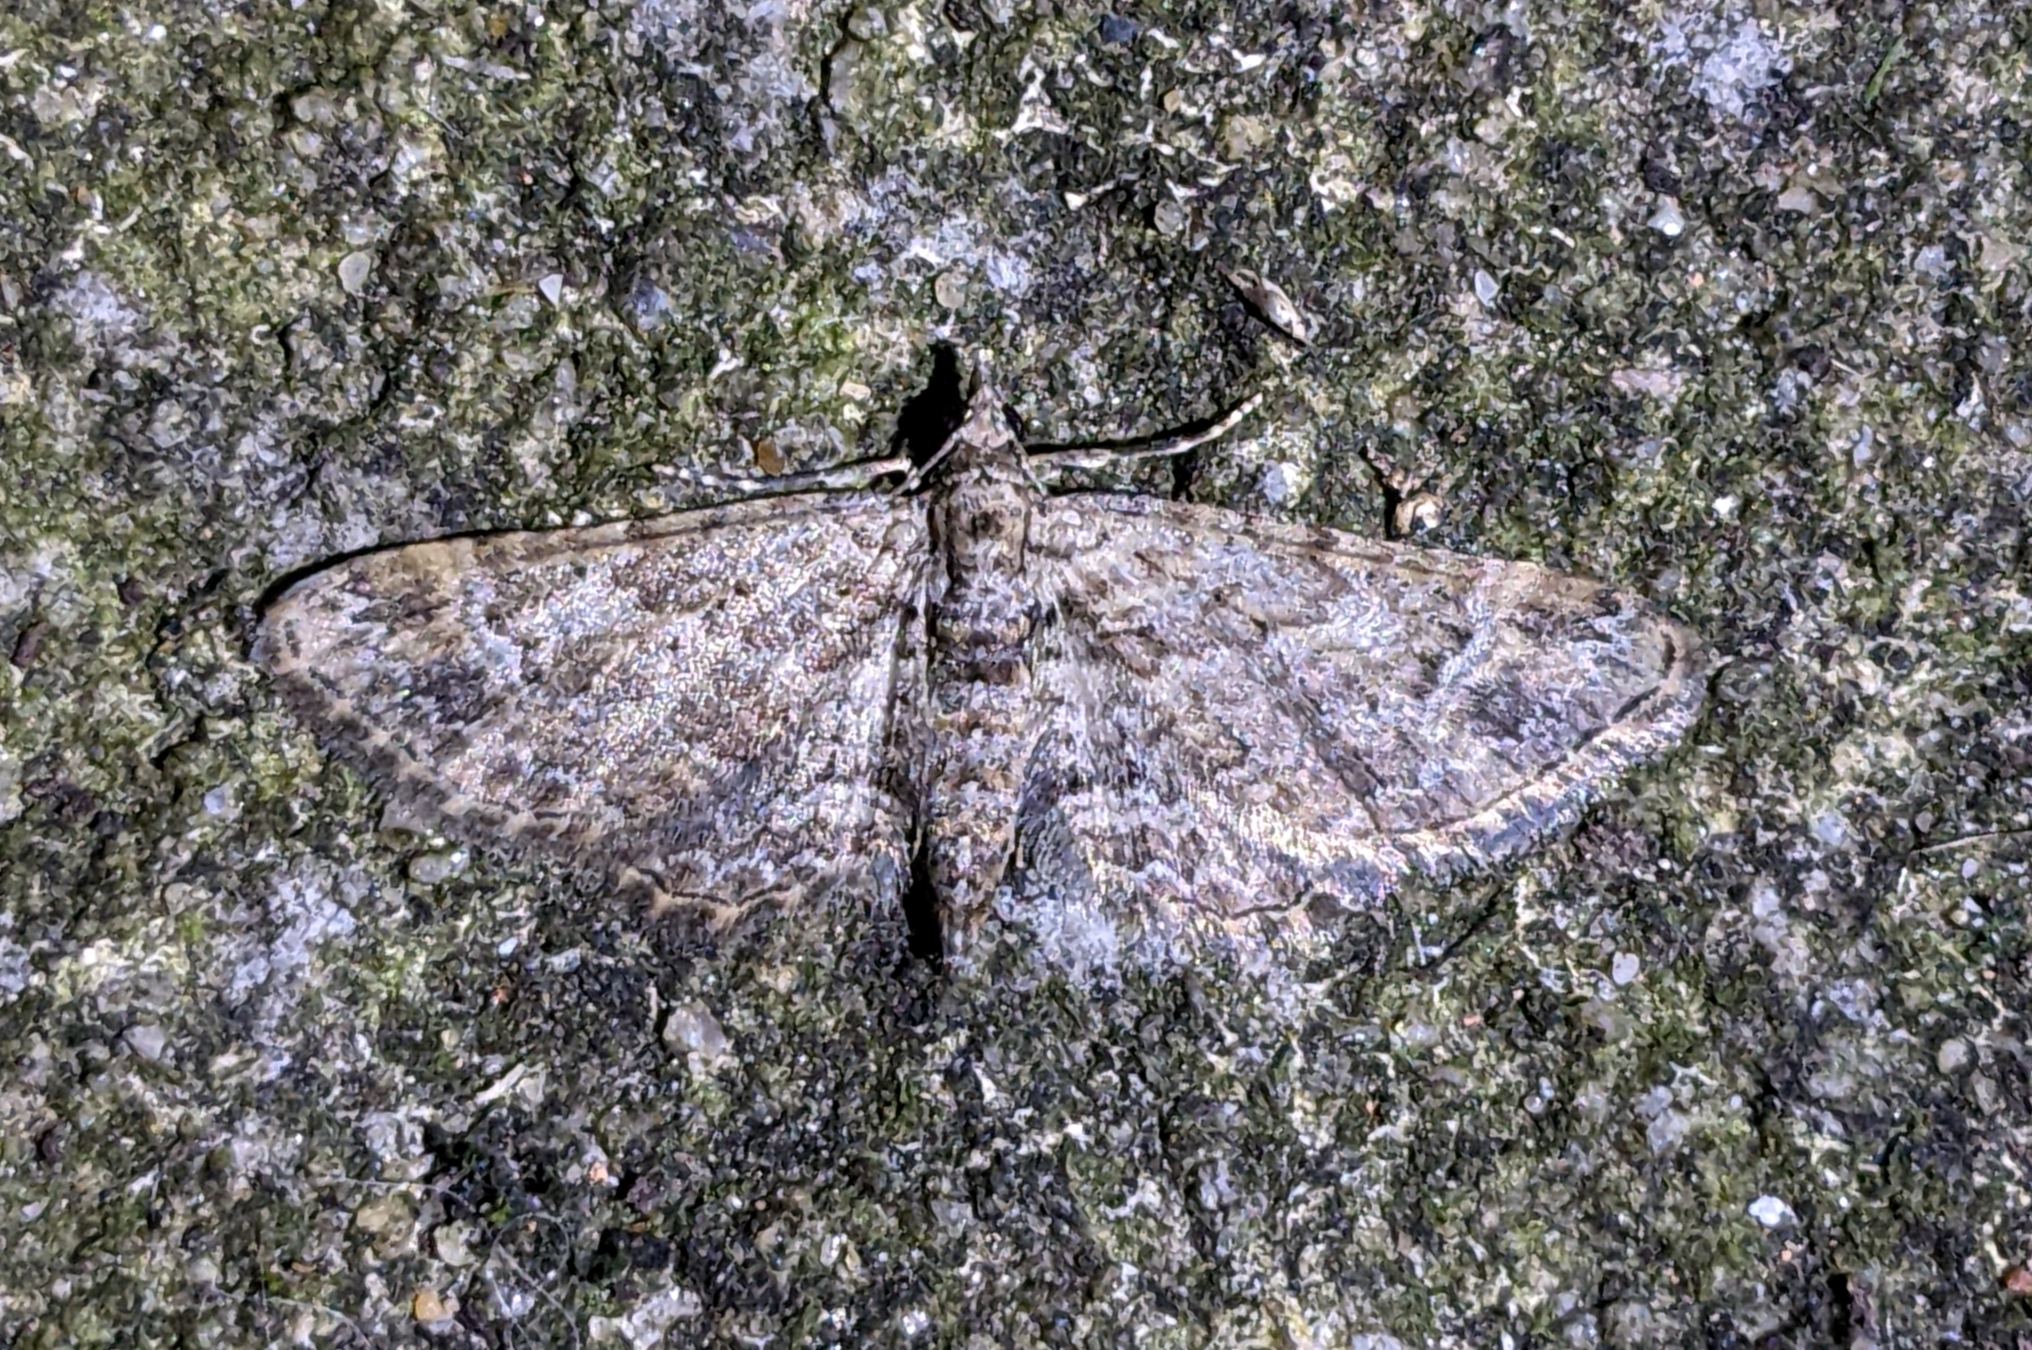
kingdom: Animalia
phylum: Arthropoda
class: Insecta
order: Lepidoptera
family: Geometridae
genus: Gymnoscelis
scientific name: Gymnoscelis rufifasciata
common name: Double-striped pug
